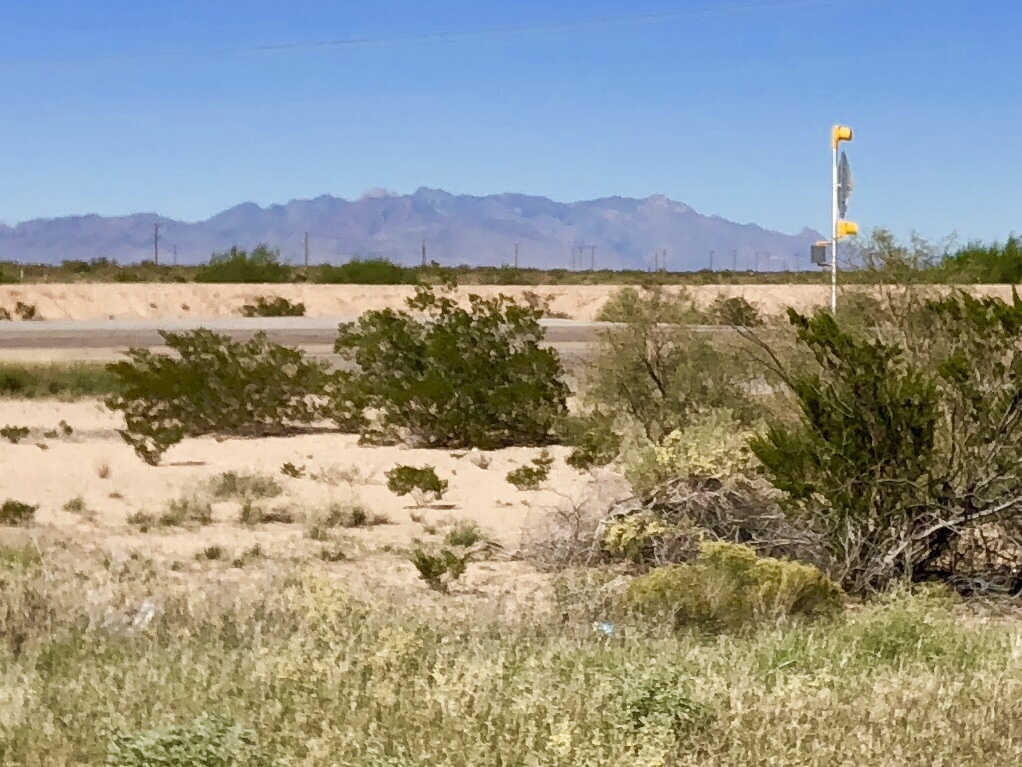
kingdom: Plantae
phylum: Tracheophyta
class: Magnoliopsida
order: Zygophyllales
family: Zygophyllaceae
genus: Larrea
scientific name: Larrea tridentata
